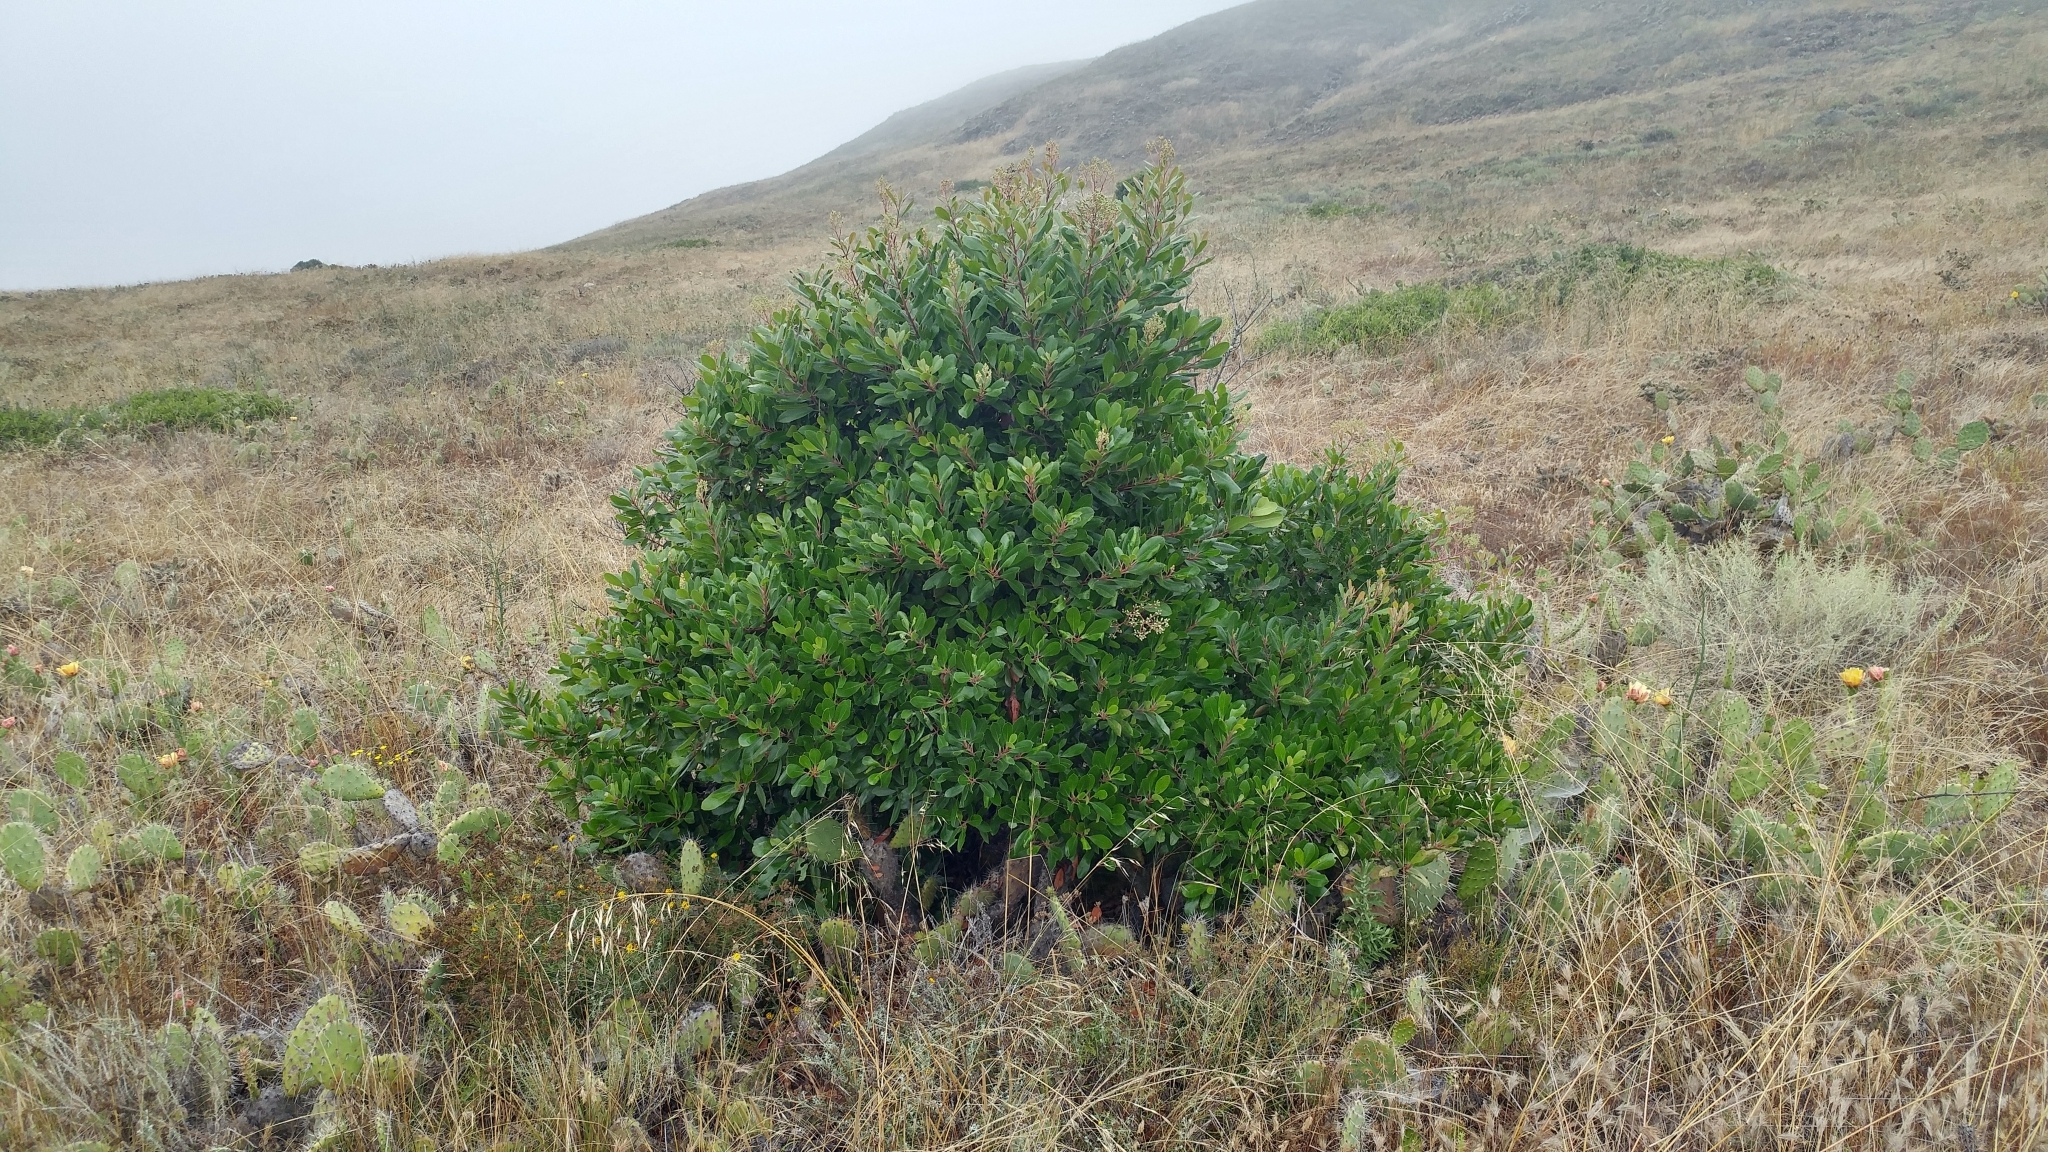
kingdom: Plantae
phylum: Tracheophyta
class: Magnoliopsida
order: Rosales
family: Rosaceae
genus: Heteromeles
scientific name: Heteromeles arbutifolia
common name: California-holly
